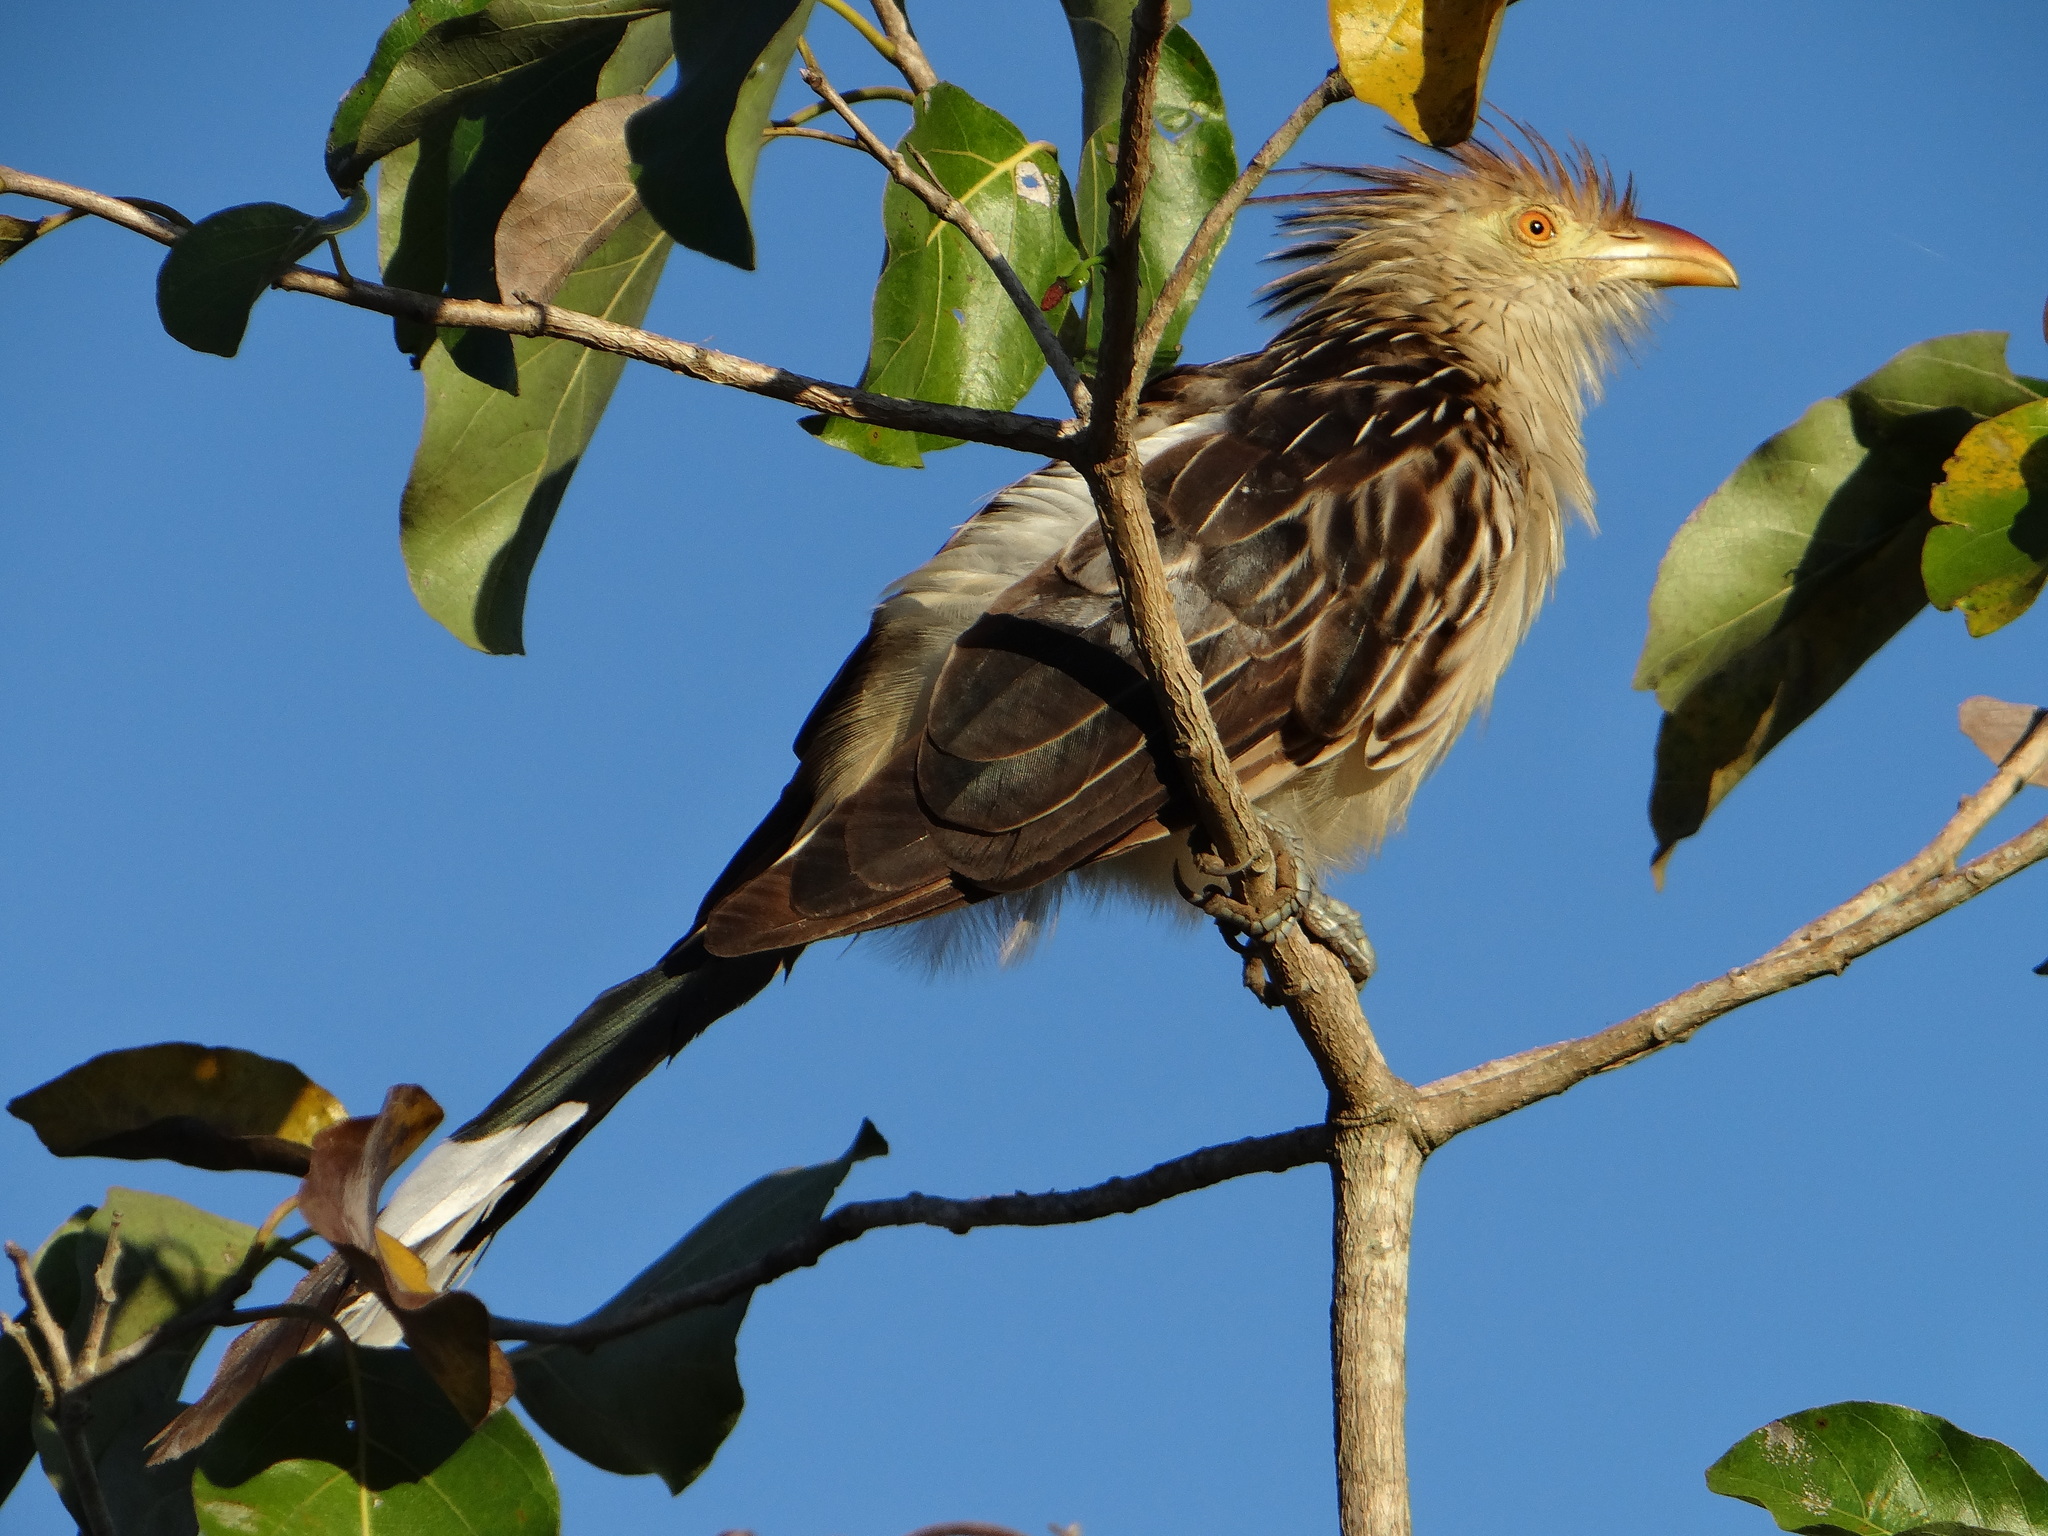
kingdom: Animalia
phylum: Chordata
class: Aves
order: Cuculiformes
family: Cuculidae
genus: Guira
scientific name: Guira guira
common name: Guira cuckoo
